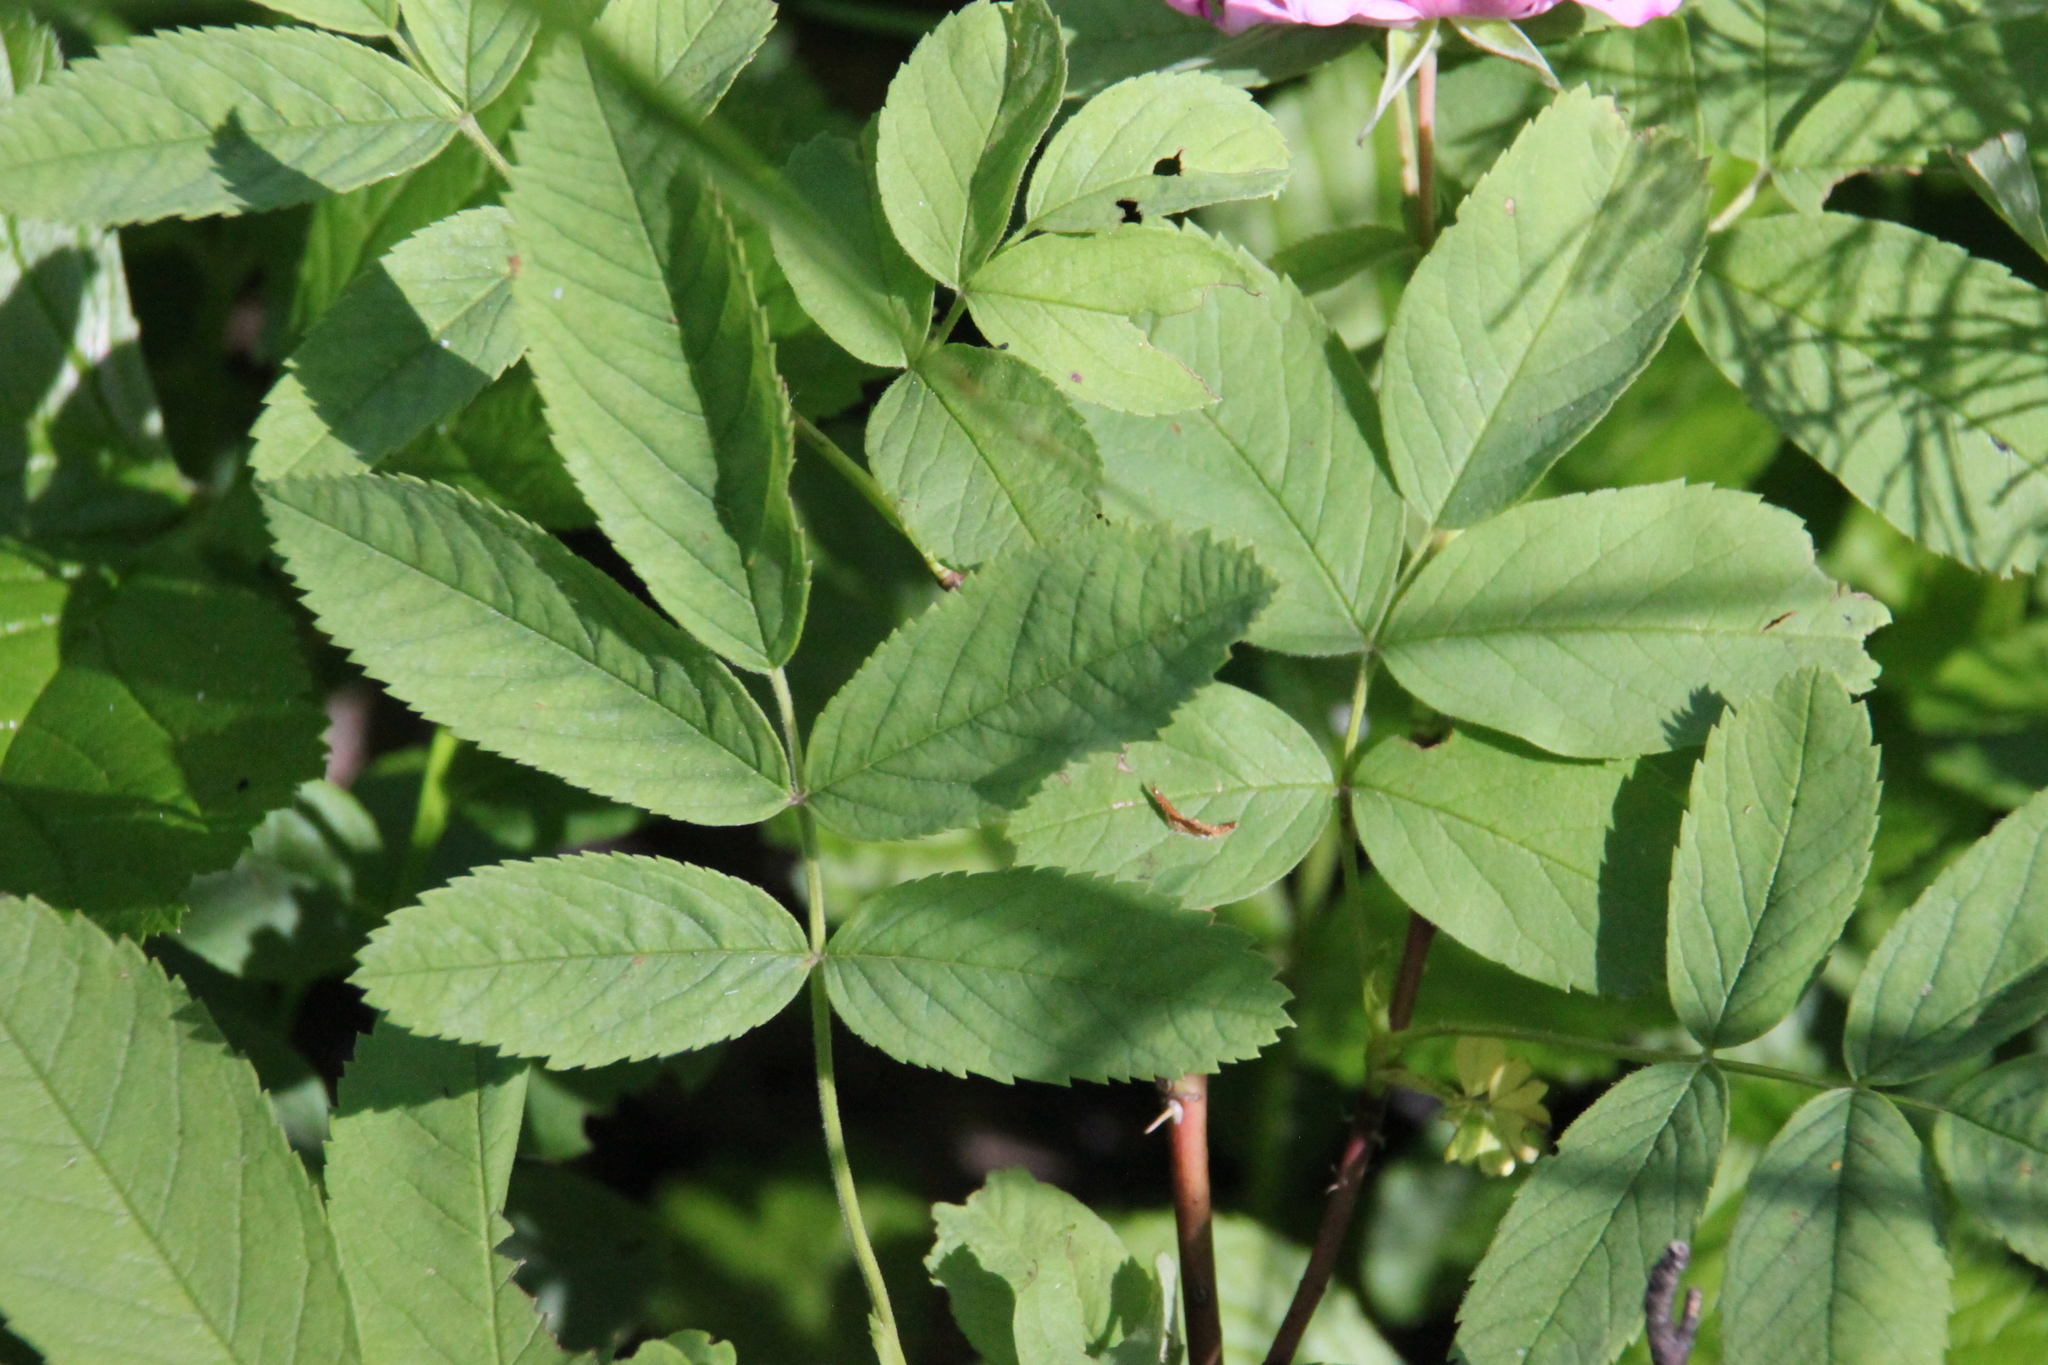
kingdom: Plantae
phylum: Tracheophyta
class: Magnoliopsida
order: Rosales
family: Rosaceae
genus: Rosa
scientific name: Rosa majalis
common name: Cinnamon rose
